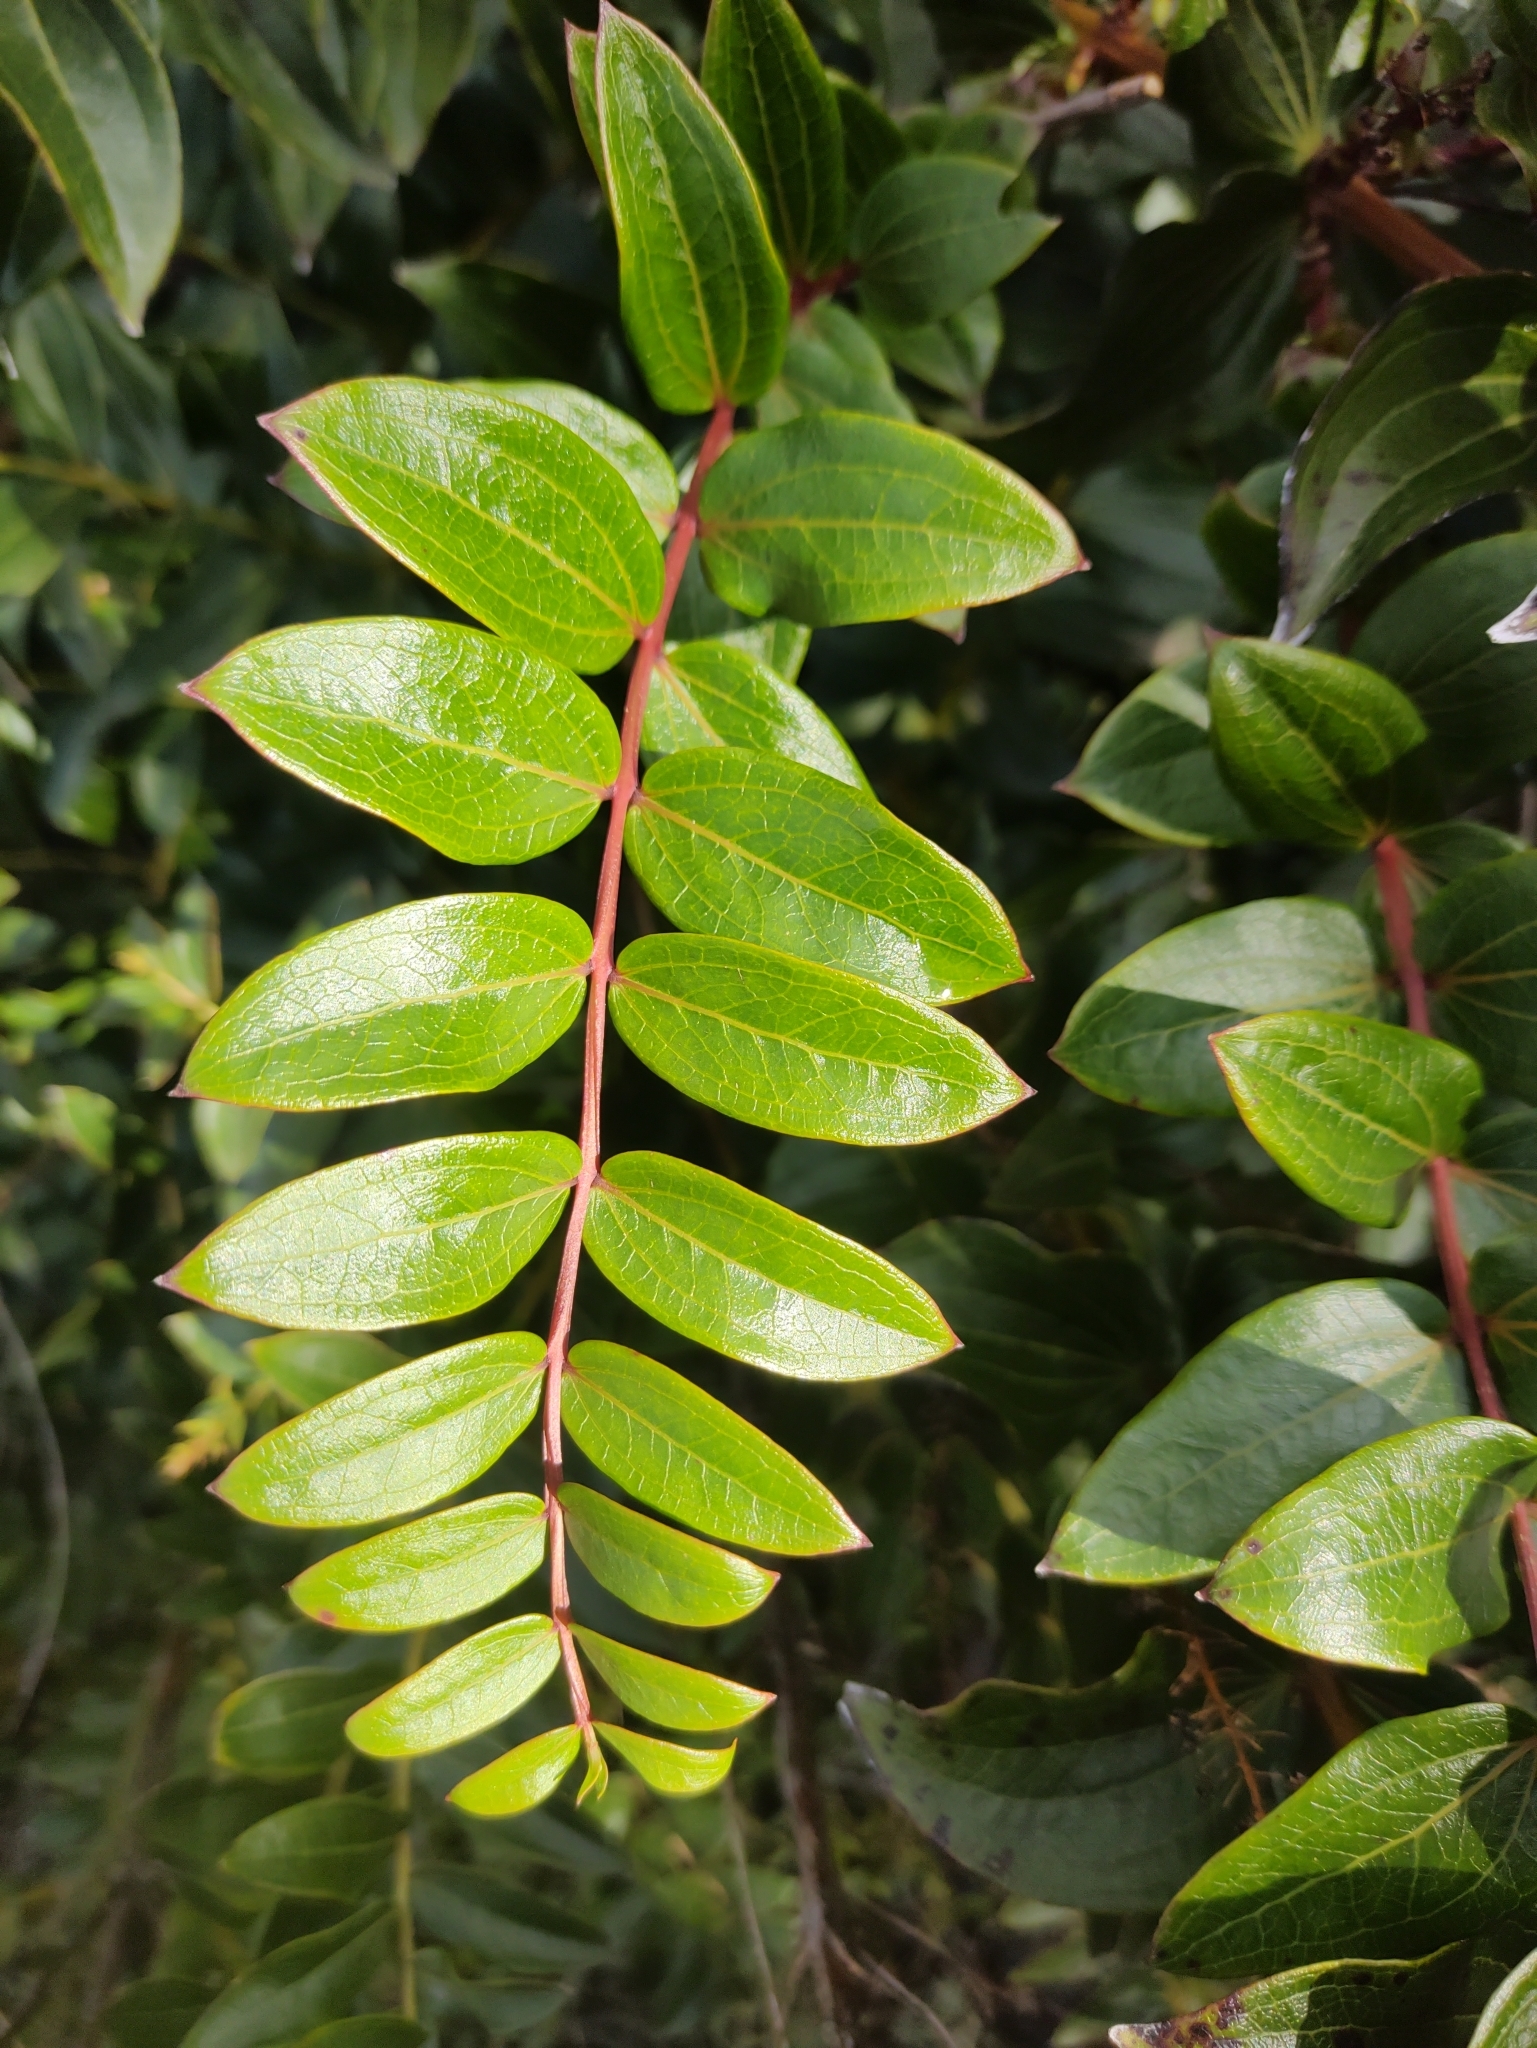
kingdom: Plantae
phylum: Tracheophyta
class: Magnoliopsida
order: Cucurbitales
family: Coriariaceae
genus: Coriaria
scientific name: Coriaria ruscifolia
